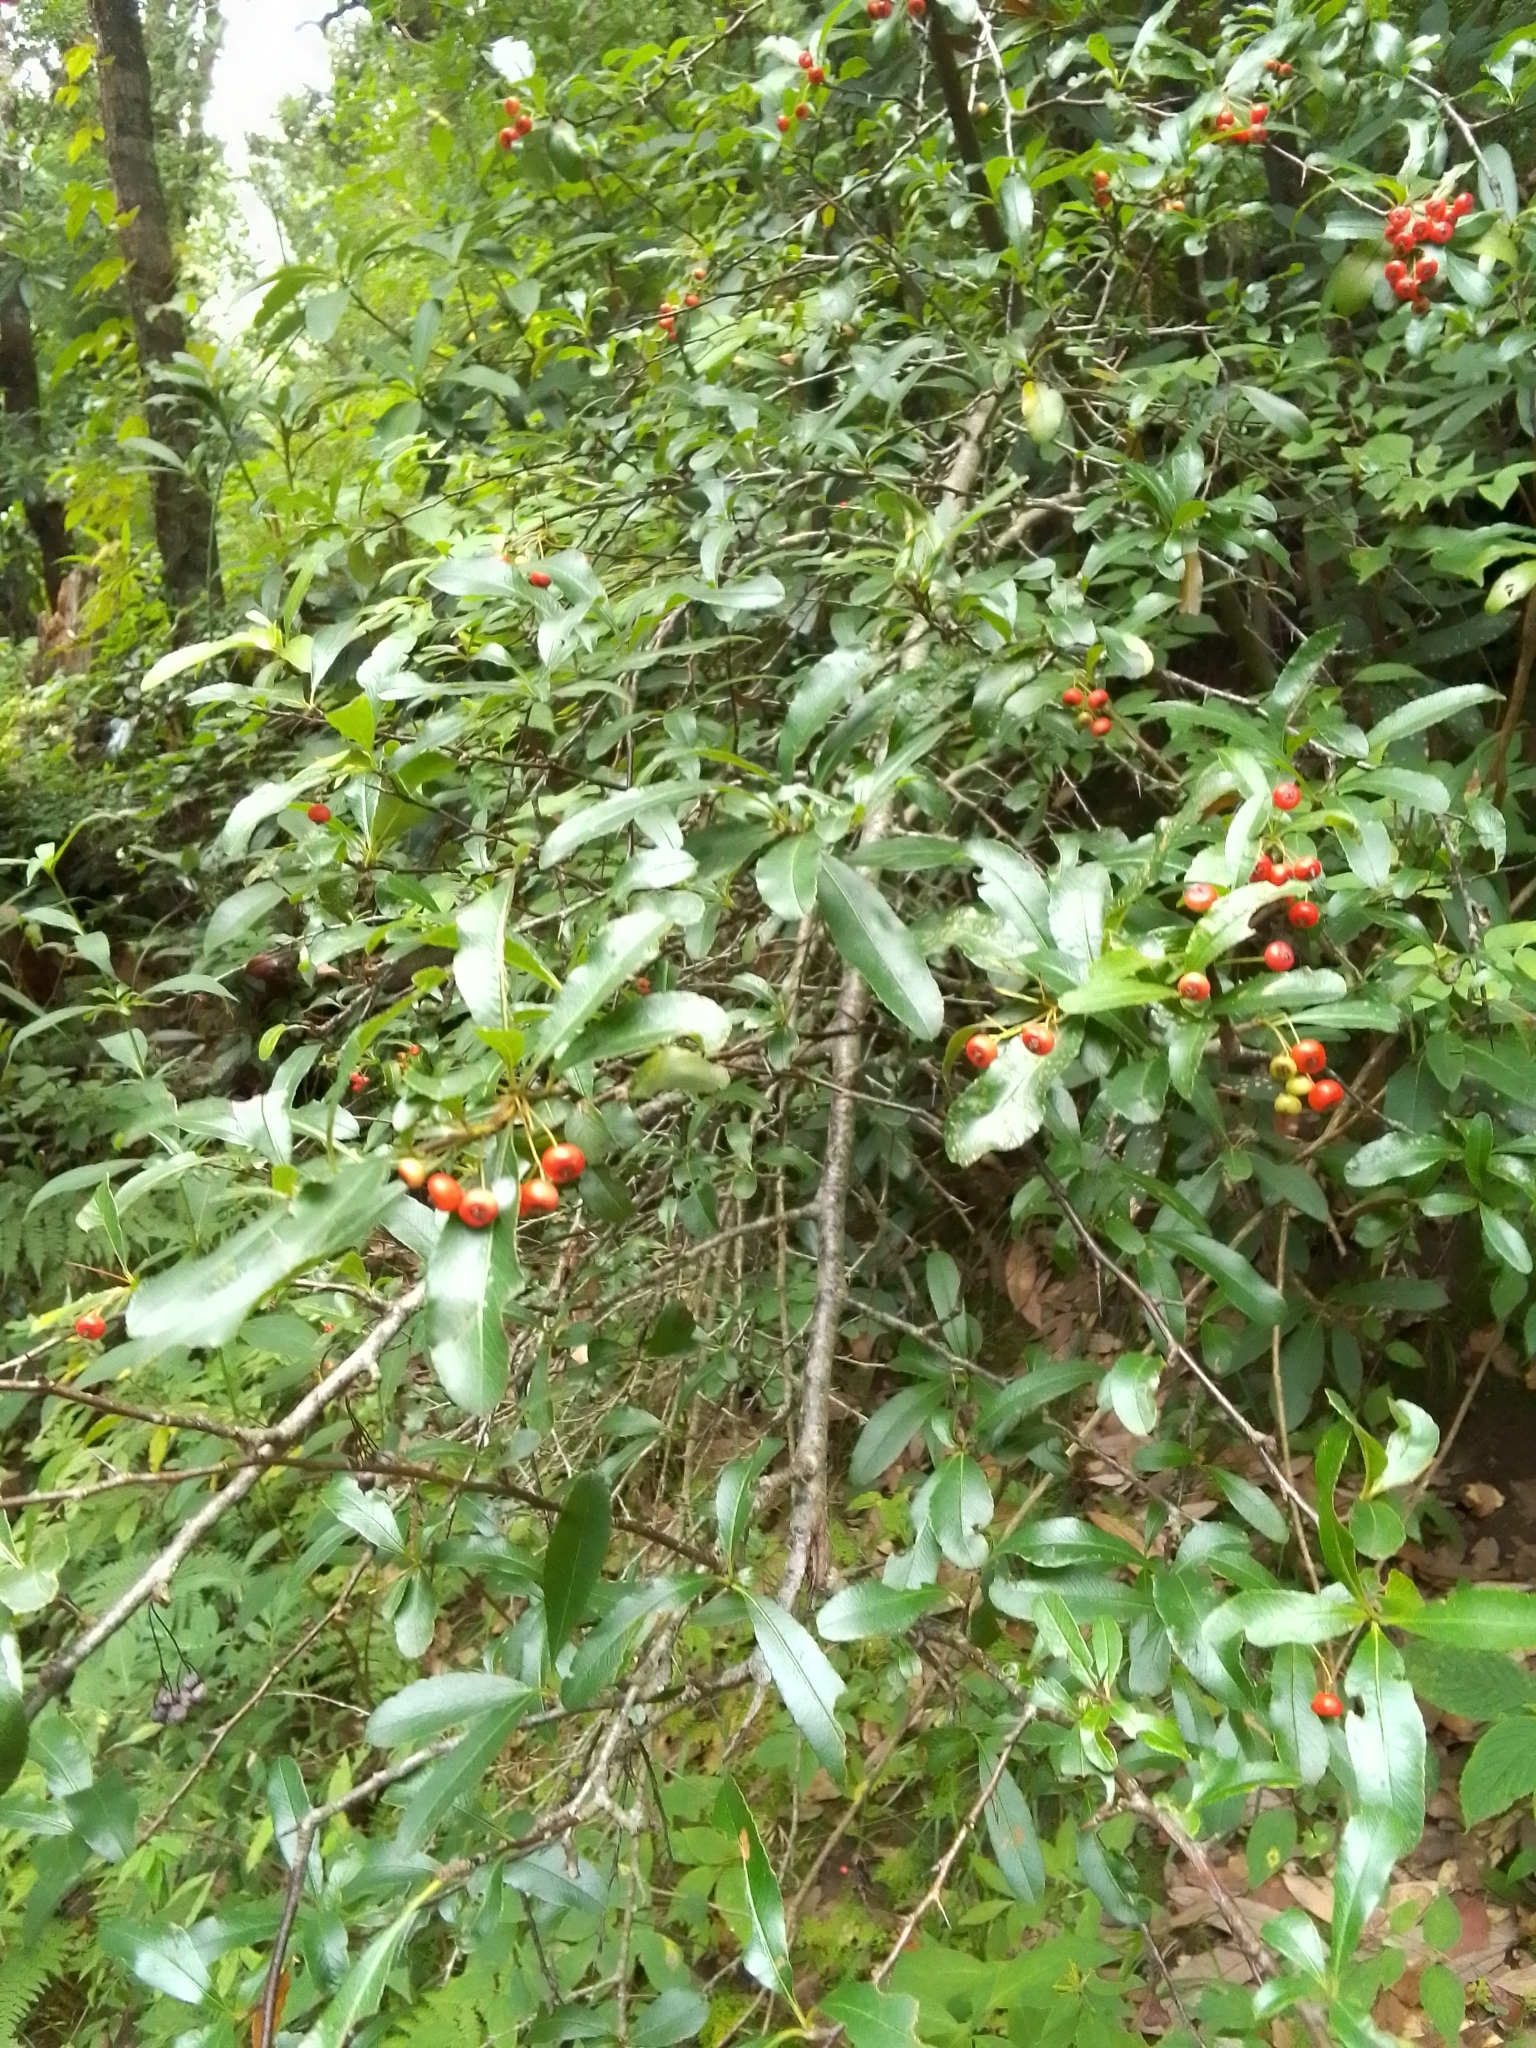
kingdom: Plantae
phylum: Tracheophyta
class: Magnoliopsida
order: Rosales
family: Rosaceae
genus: Pyracantha
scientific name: Pyracantha crenulata
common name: Nepalese firethorn
